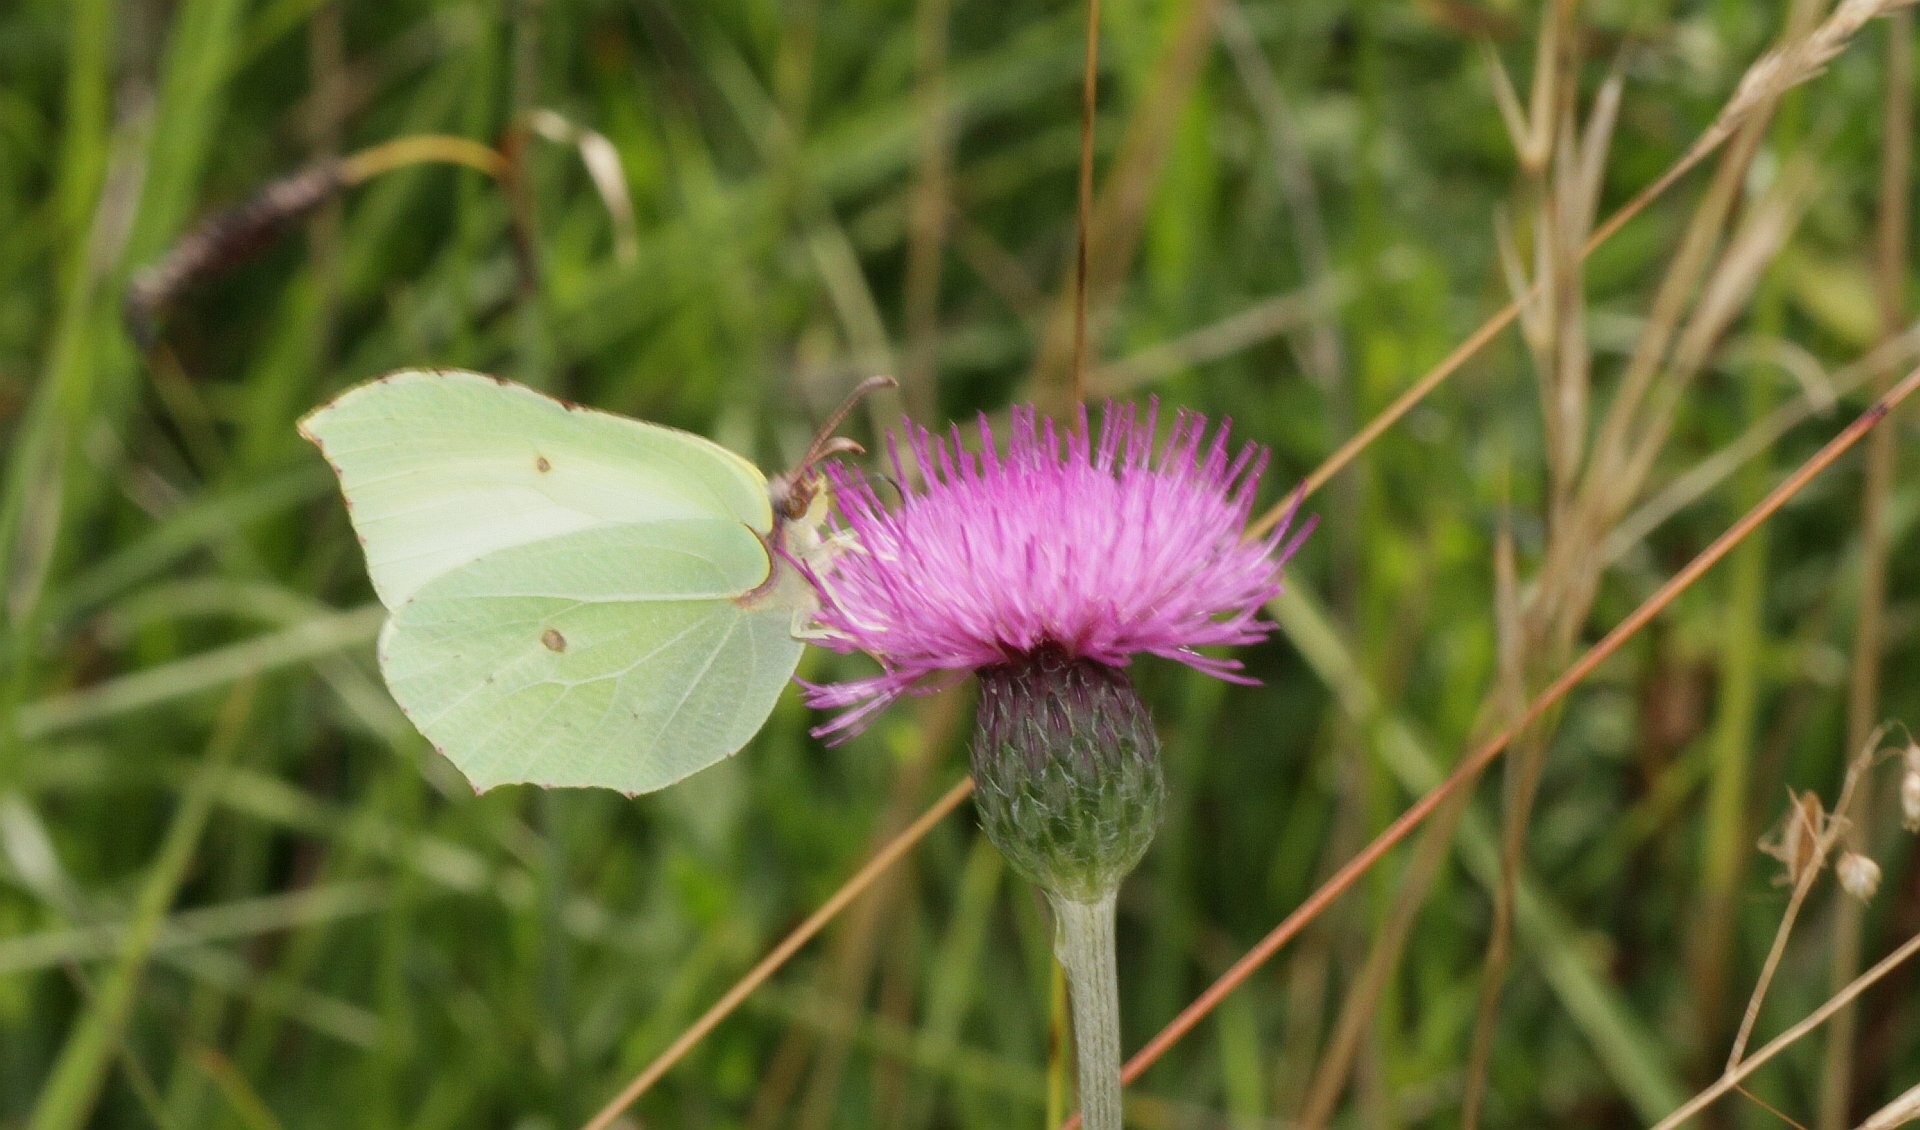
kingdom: Animalia
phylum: Arthropoda
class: Insecta
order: Lepidoptera
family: Pieridae
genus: Gonepteryx
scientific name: Gonepteryx rhamni
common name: Brimstone
